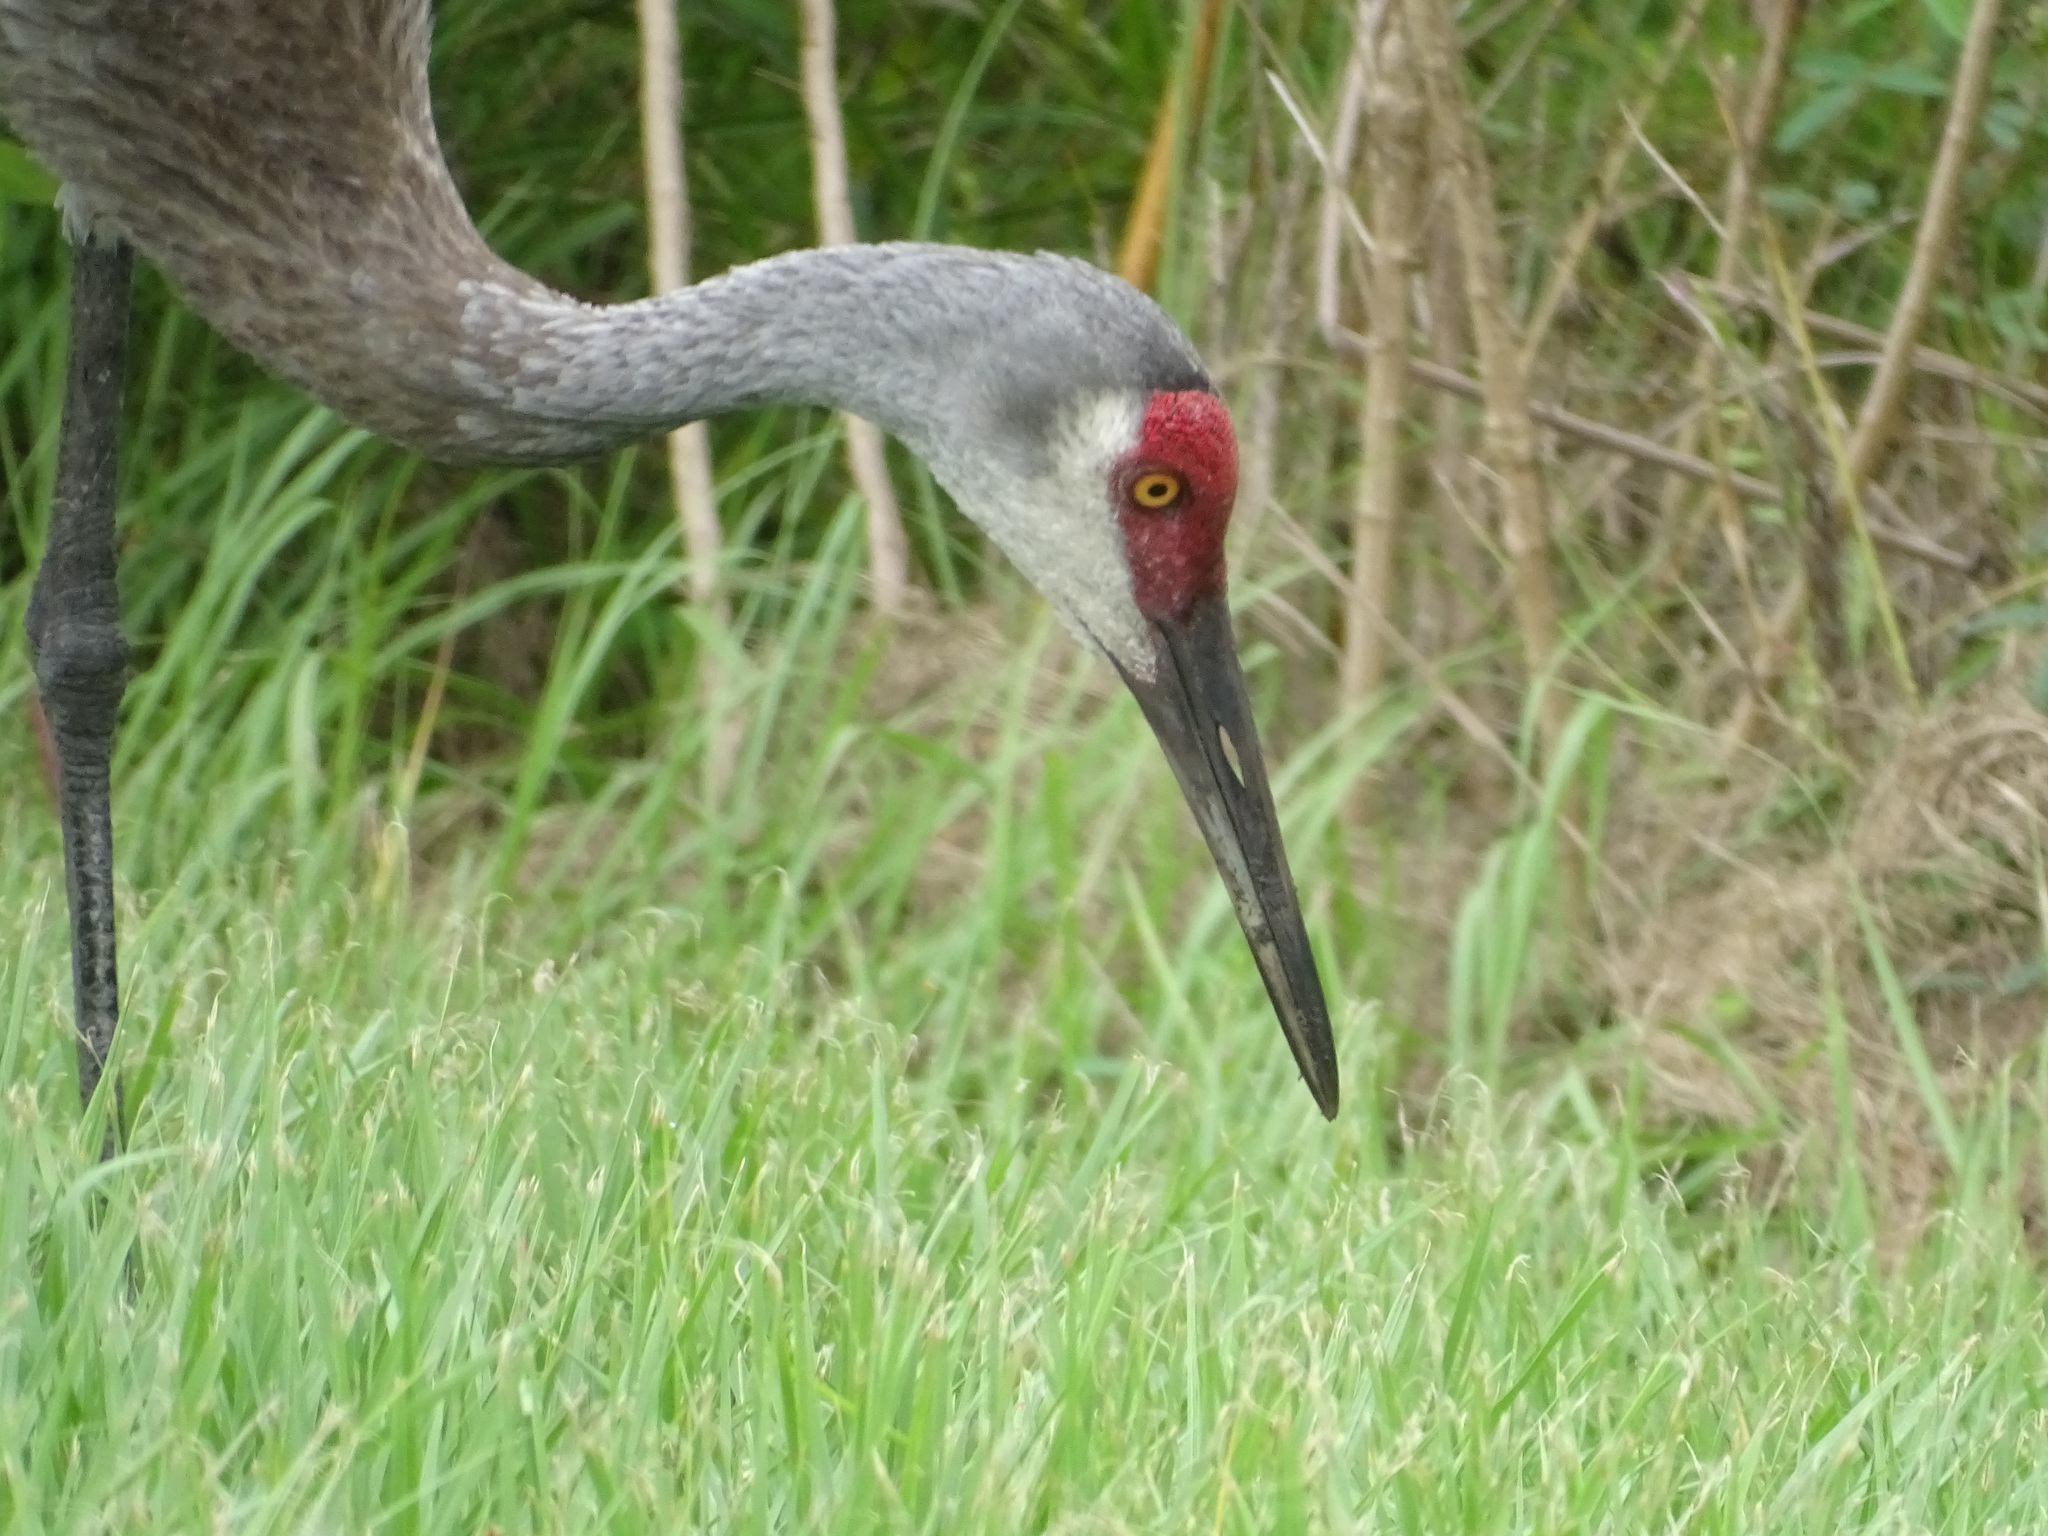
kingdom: Animalia
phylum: Chordata
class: Aves
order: Gruiformes
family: Gruidae
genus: Grus
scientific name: Grus canadensis
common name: Sandhill crane
